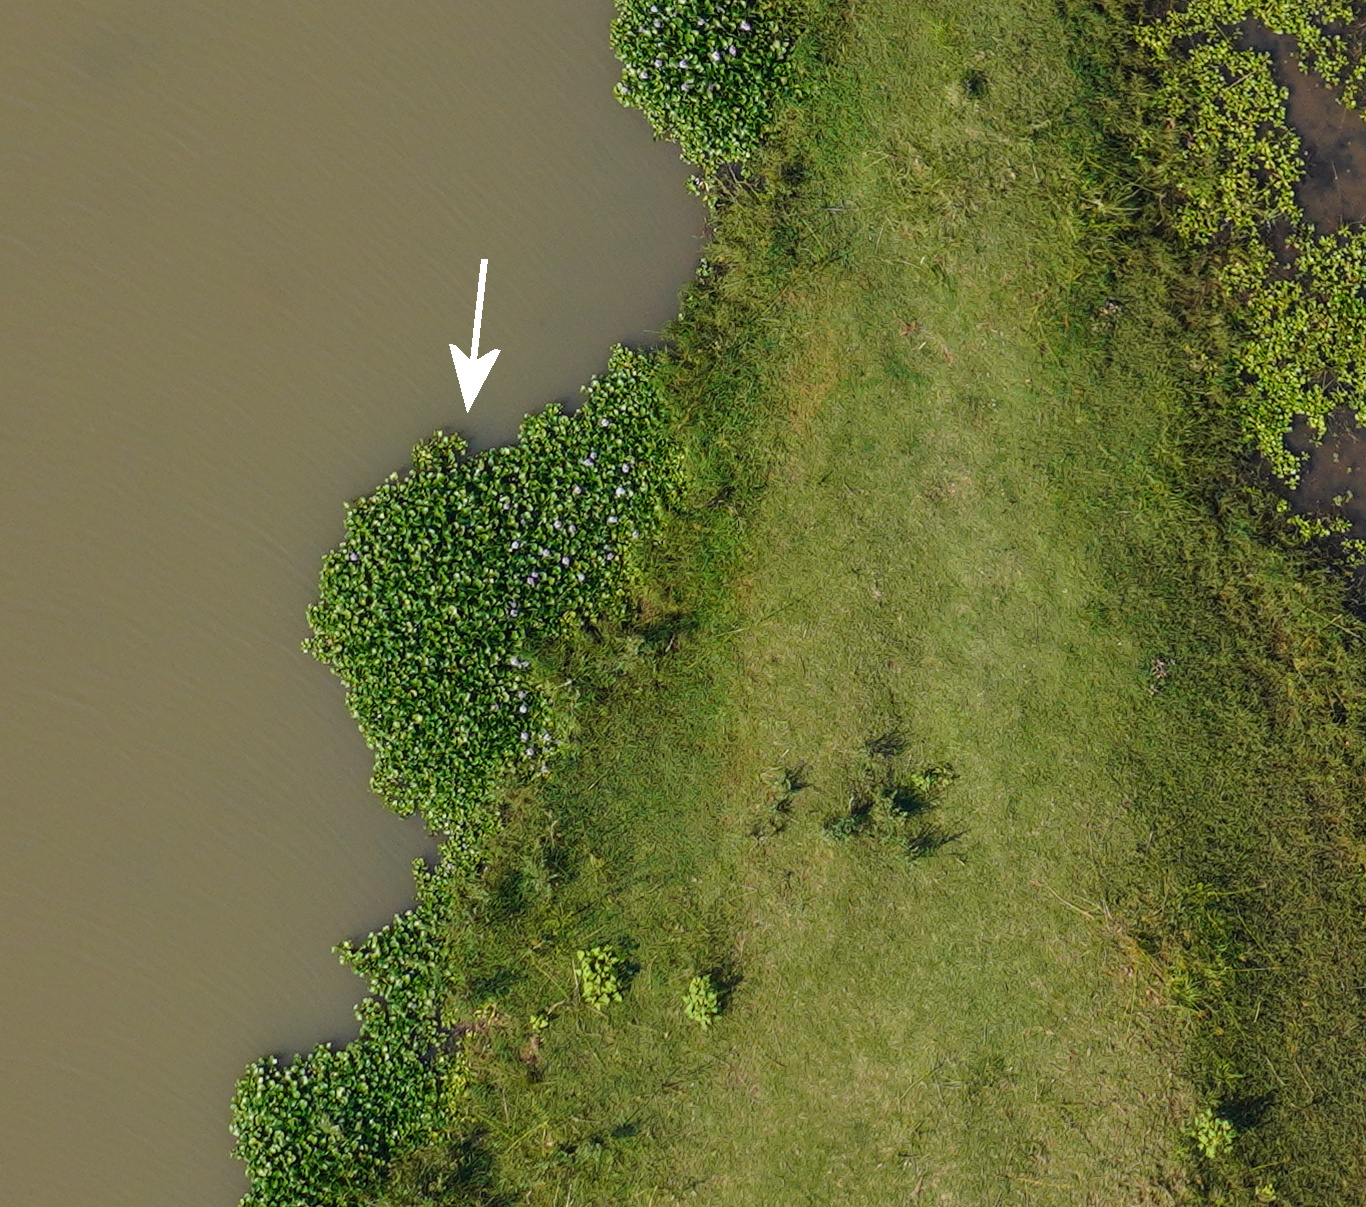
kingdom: Plantae
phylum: Tracheophyta
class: Liliopsida
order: Commelinales
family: Pontederiaceae
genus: Pontederia
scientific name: Pontederia crassipes
